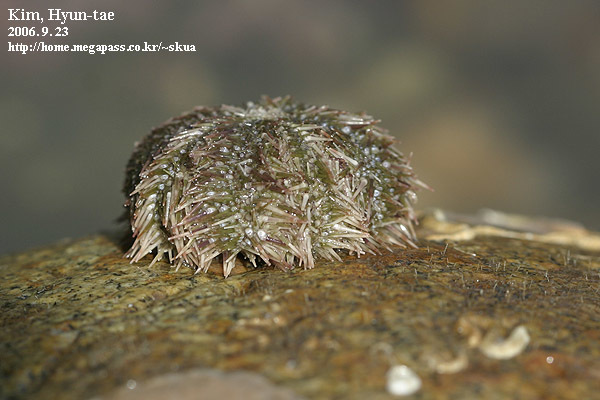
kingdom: Animalia
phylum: Echinodermata
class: Echinoidea
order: Camarodonta
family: Strongylocentrotidae
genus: Strongylocentrotus
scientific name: Strongylocentrotus intermedius
